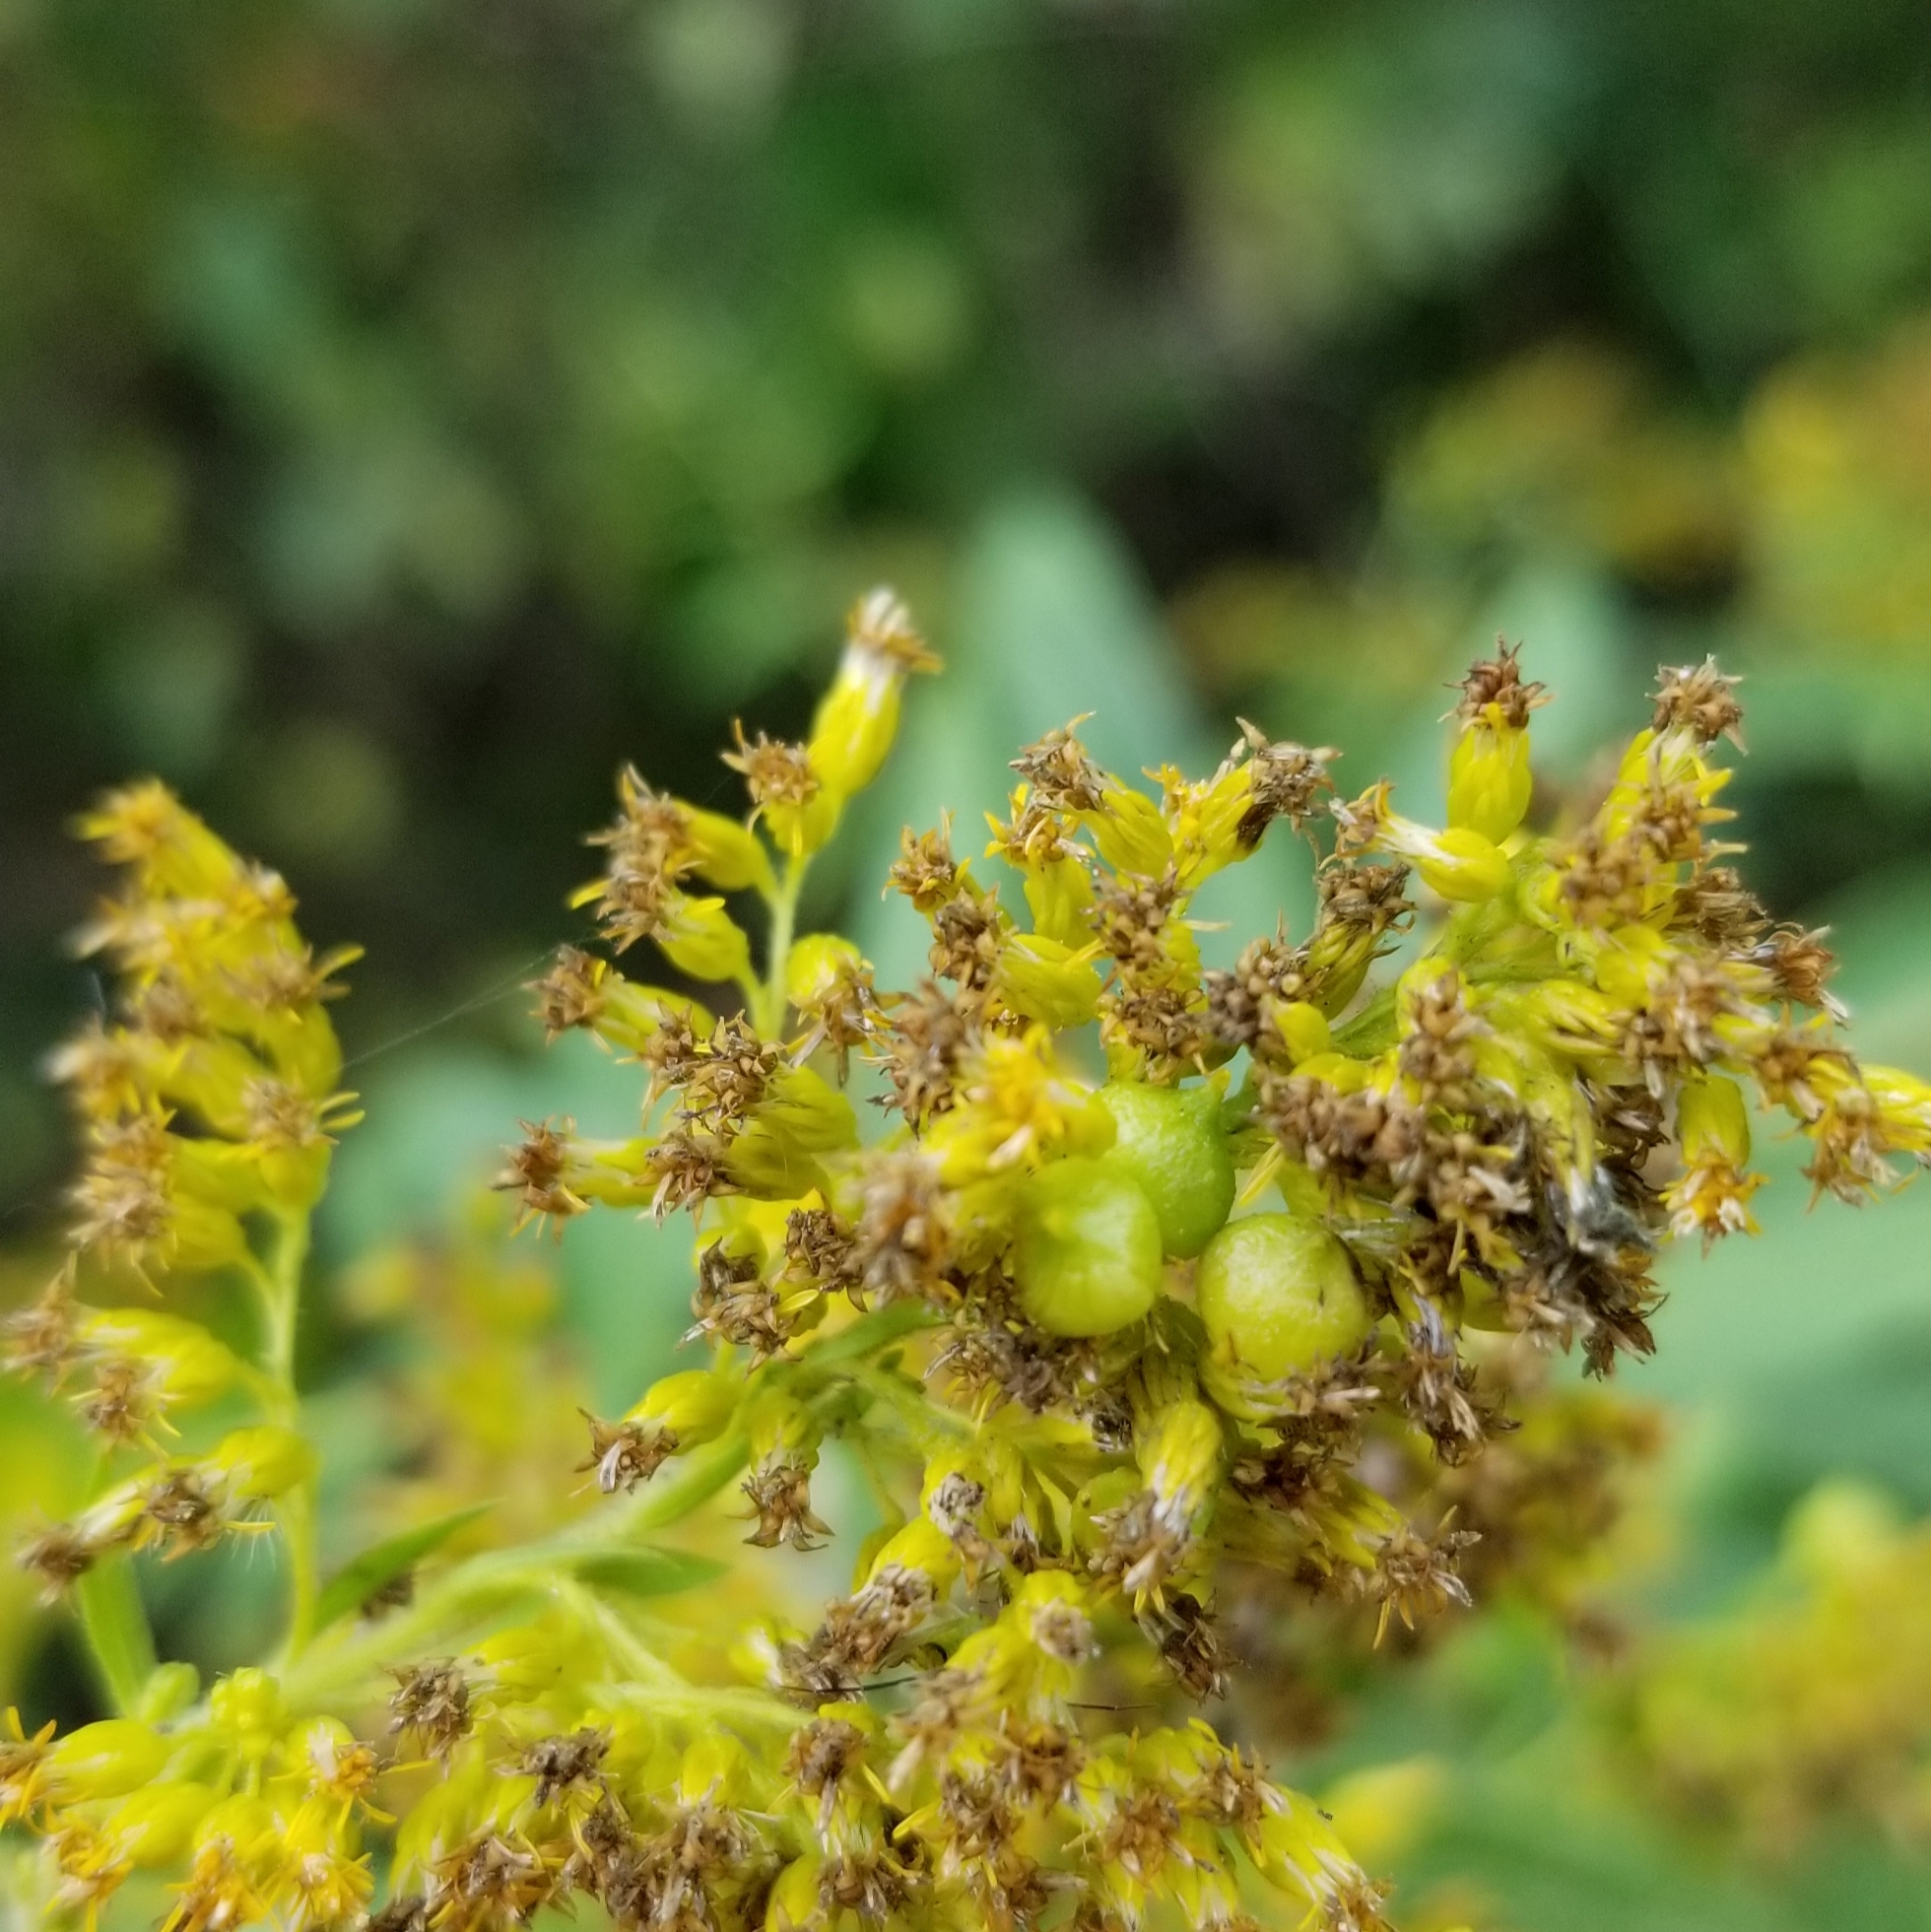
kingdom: Plantae
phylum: Tracheophyta
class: Magnoliopsida
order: Asterales
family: Asteraceae
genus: Solidago
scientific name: Solidago altissima
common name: Late goldenrod
